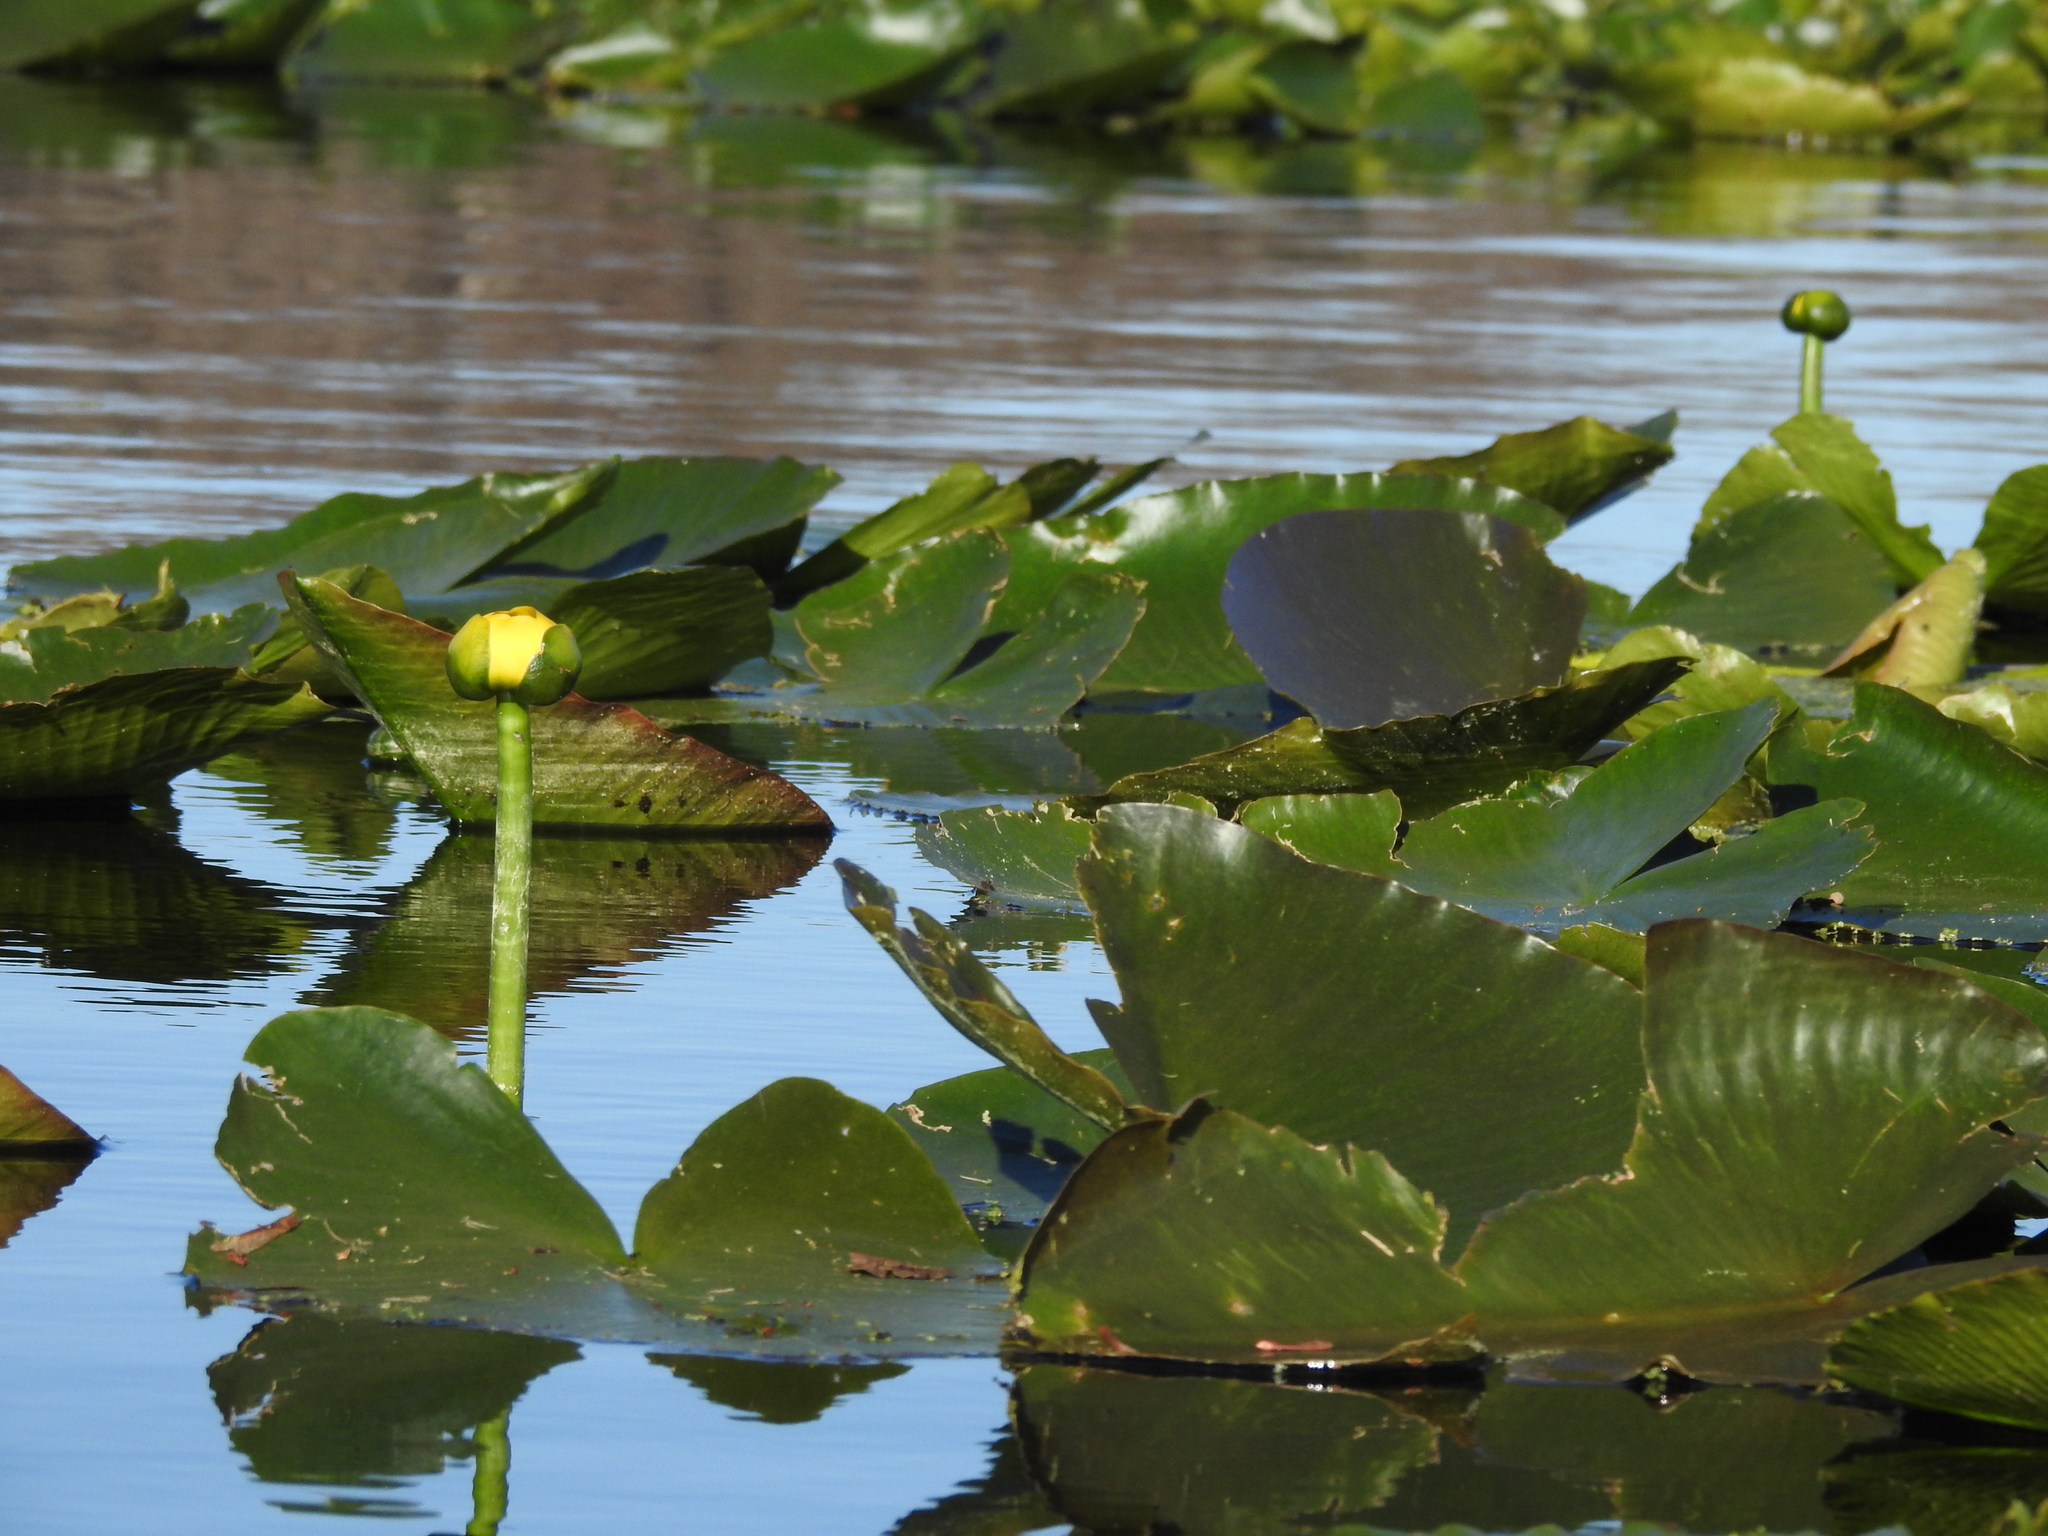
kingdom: Plantae
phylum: Tracheophyta
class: Magnoliopsida
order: Nymphaeales
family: Nymphaeaceae
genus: Nuphar
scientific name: Nuphar advena
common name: Spatter-dock
